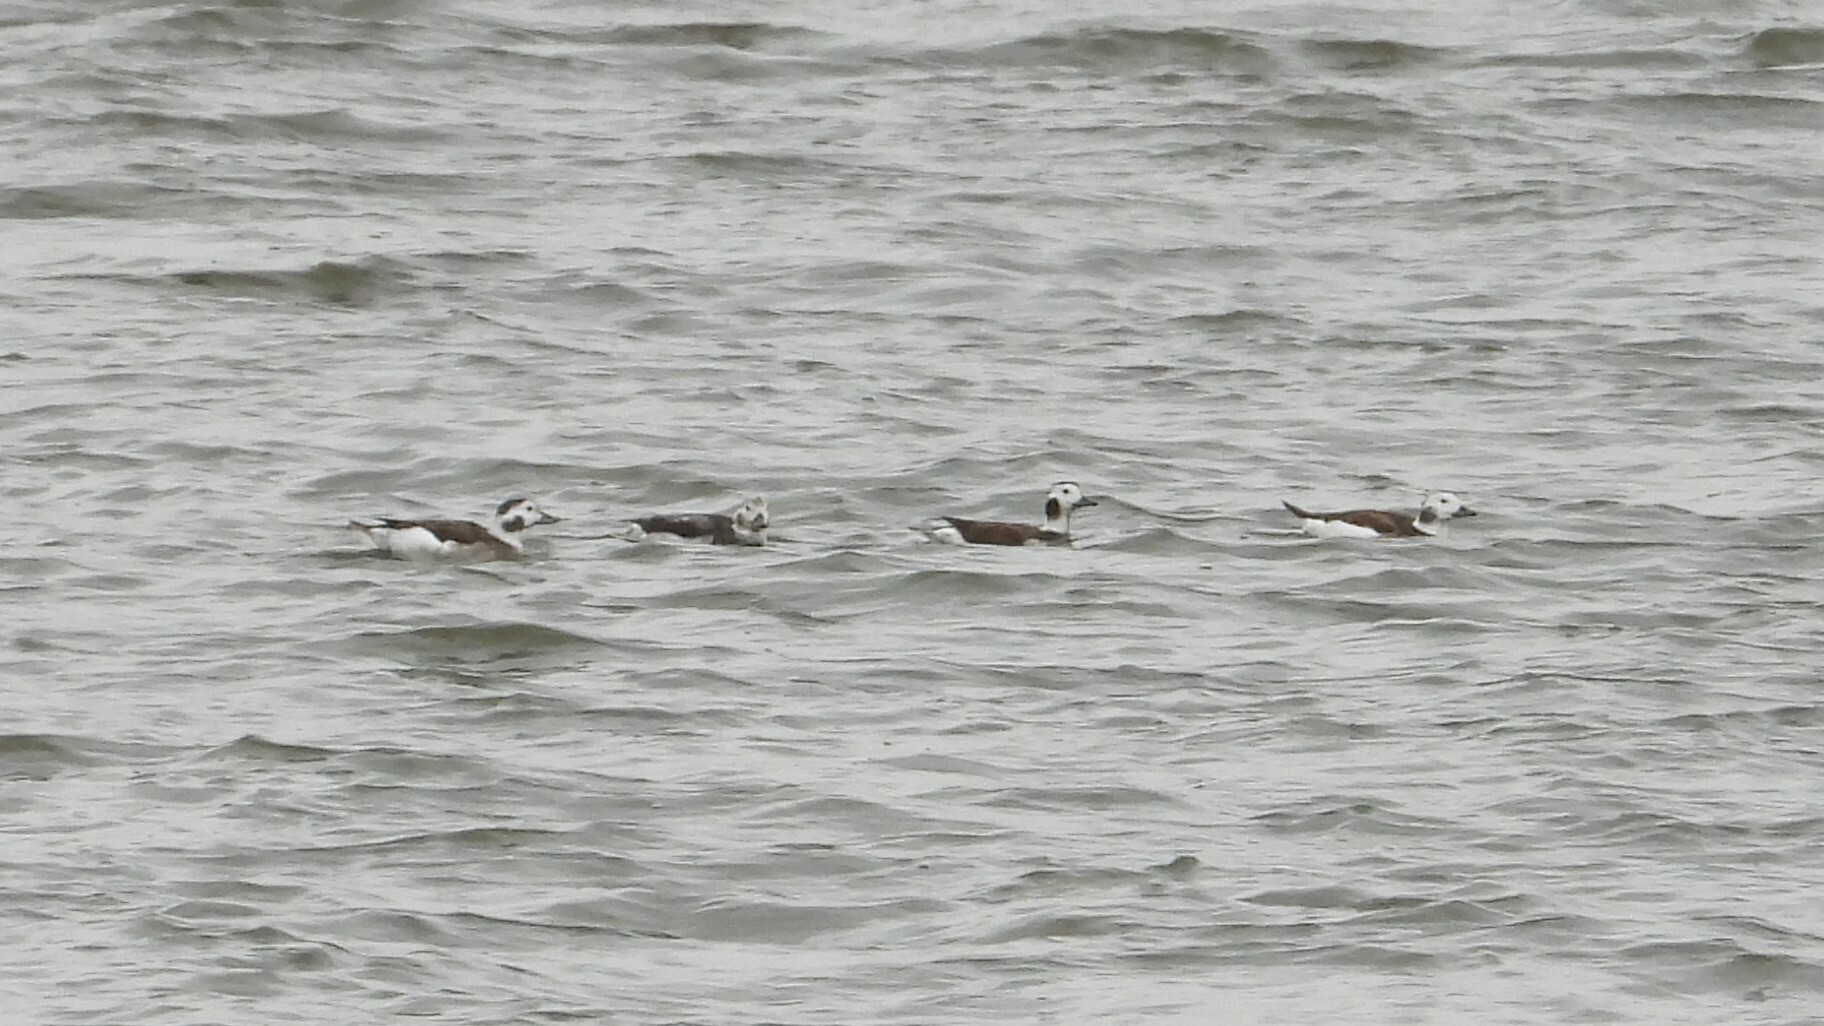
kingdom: Animalia
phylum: Chordata
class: Aves
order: Anseriformes
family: Anatidae
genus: Clangula
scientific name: Clangula hyemalis
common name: Long-tailed duck
